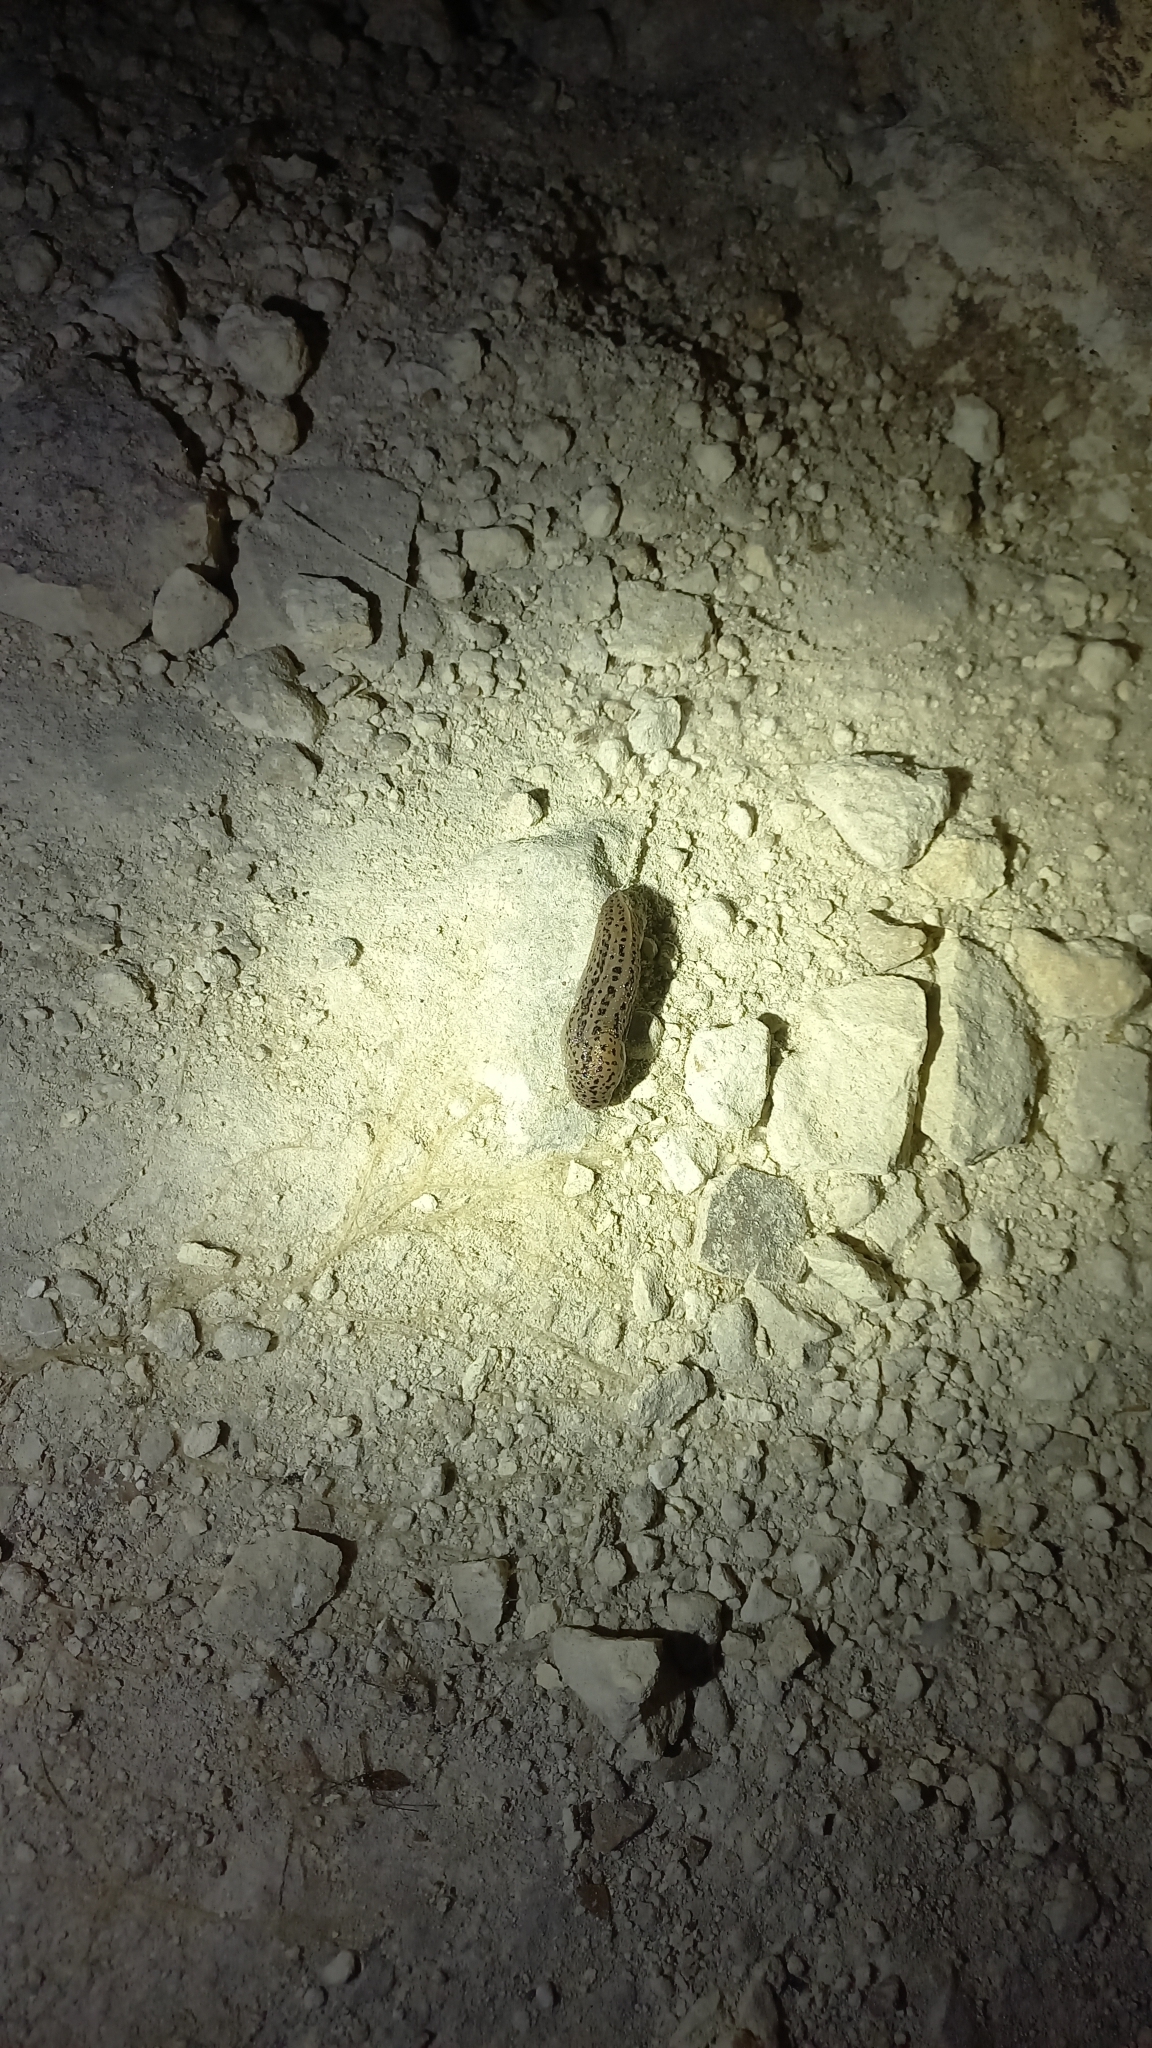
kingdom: Animalia
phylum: Mollusca
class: Gastropoda
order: Stylommatophora
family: Limacidae
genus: Limax
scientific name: Limax maximus
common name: Great grey slug
